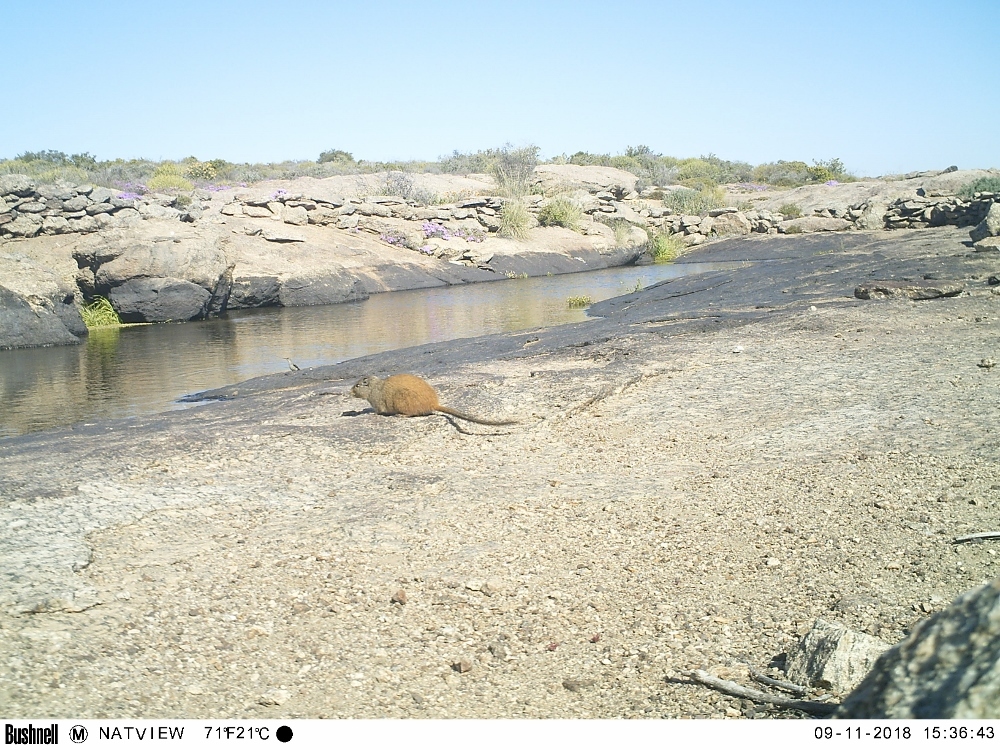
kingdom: Animalia
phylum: Chordata
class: Mammalia
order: Rodentia
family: Petromuridae
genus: Petromus
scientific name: Petromus typicus
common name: Dassie rat
